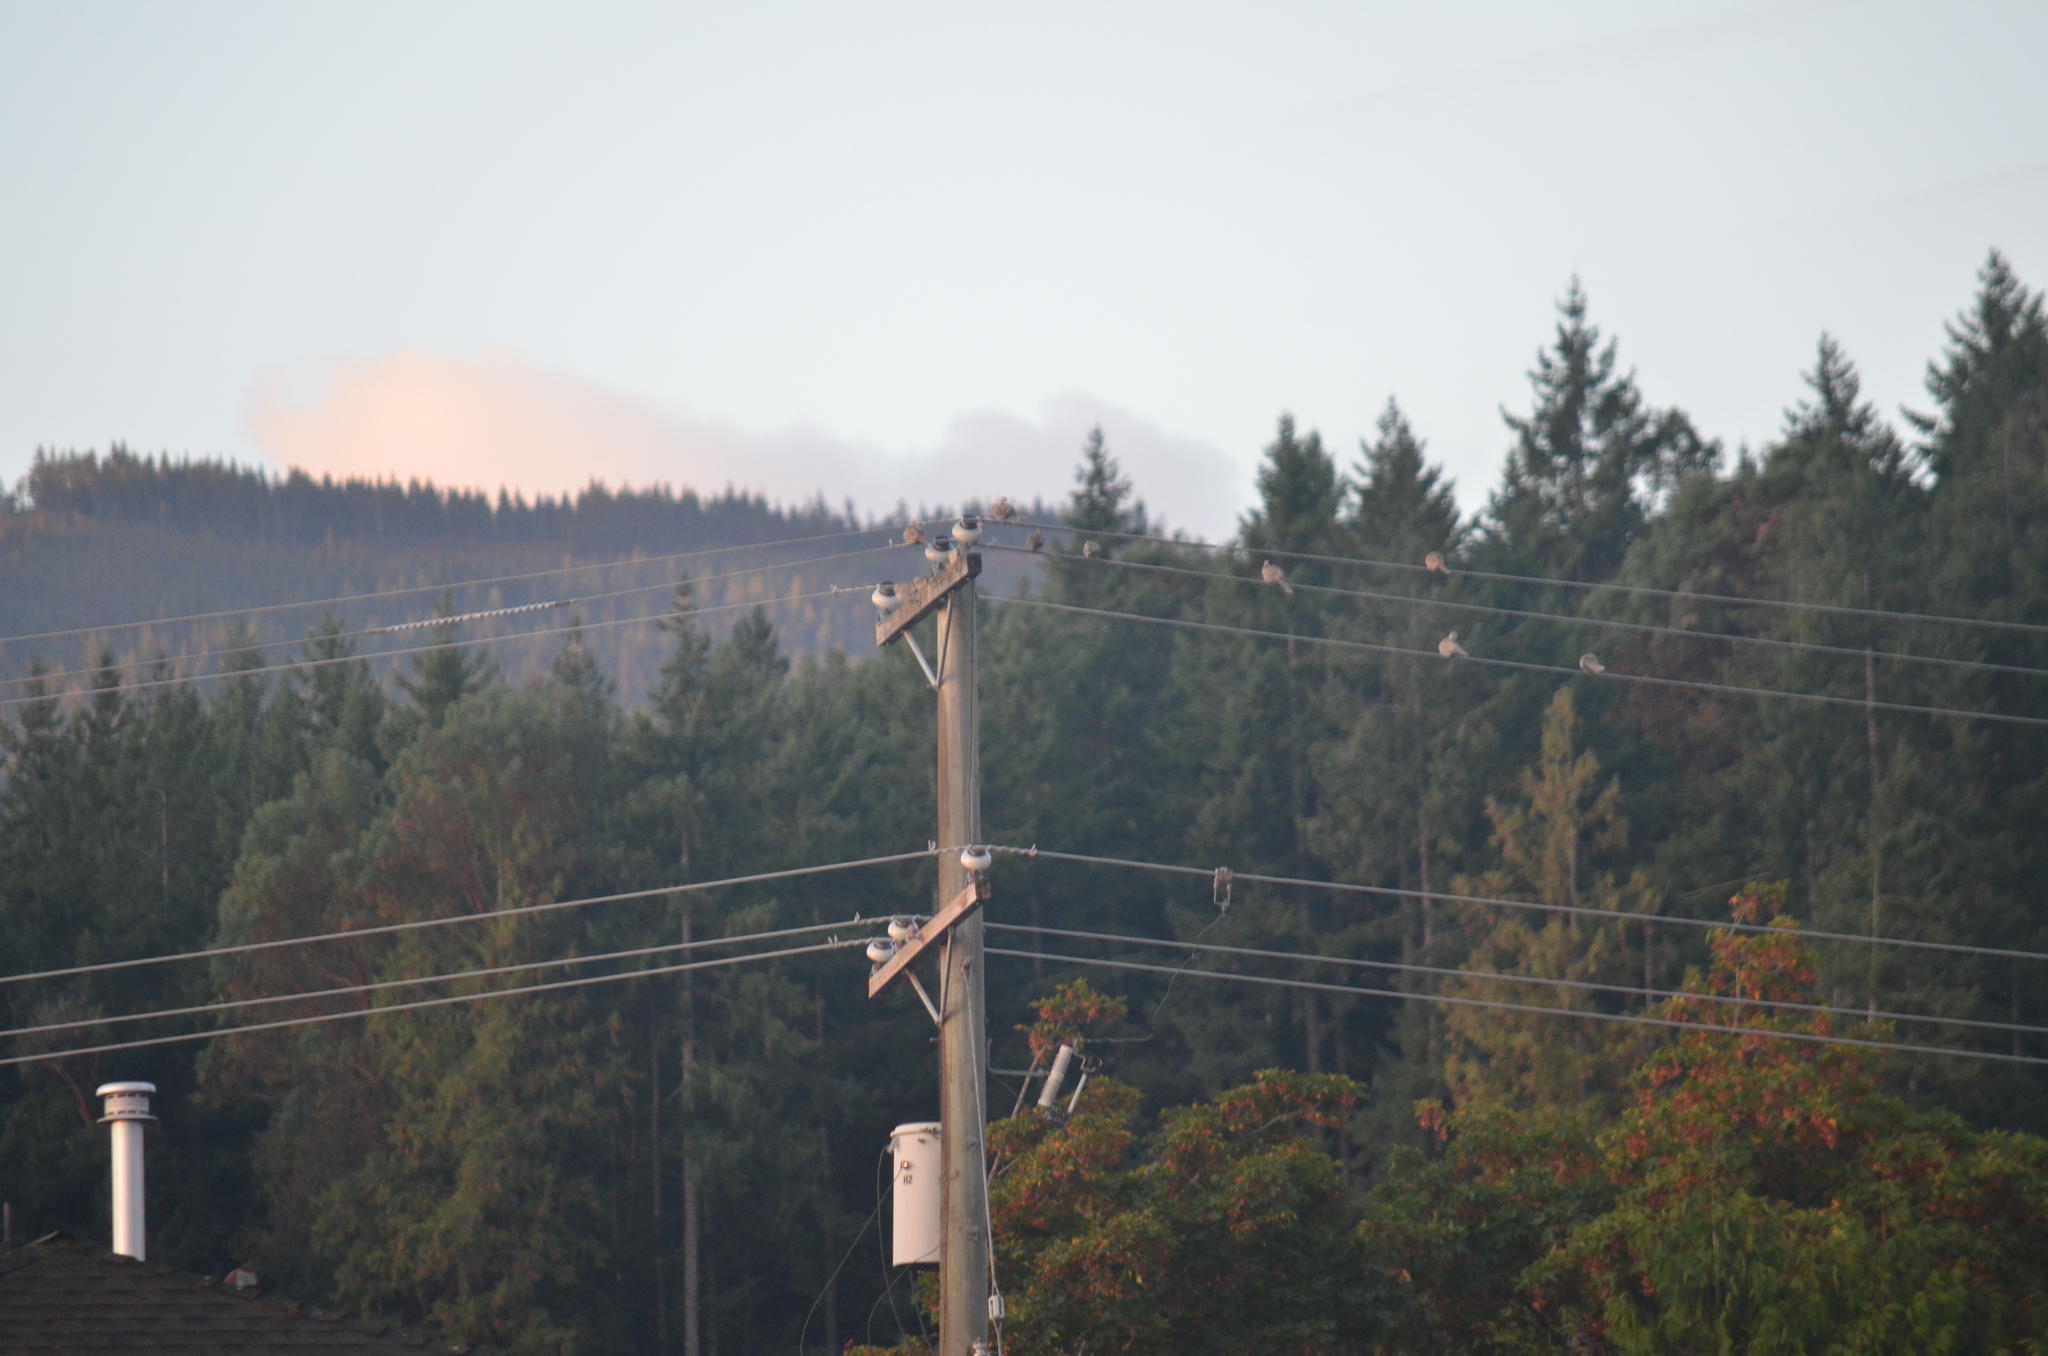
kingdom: Animalia
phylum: Chordata
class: Aves
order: Columbiformes
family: Columbidae
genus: Streptopelia
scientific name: Streptopelia decaocto
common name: Eurasian collared dove
